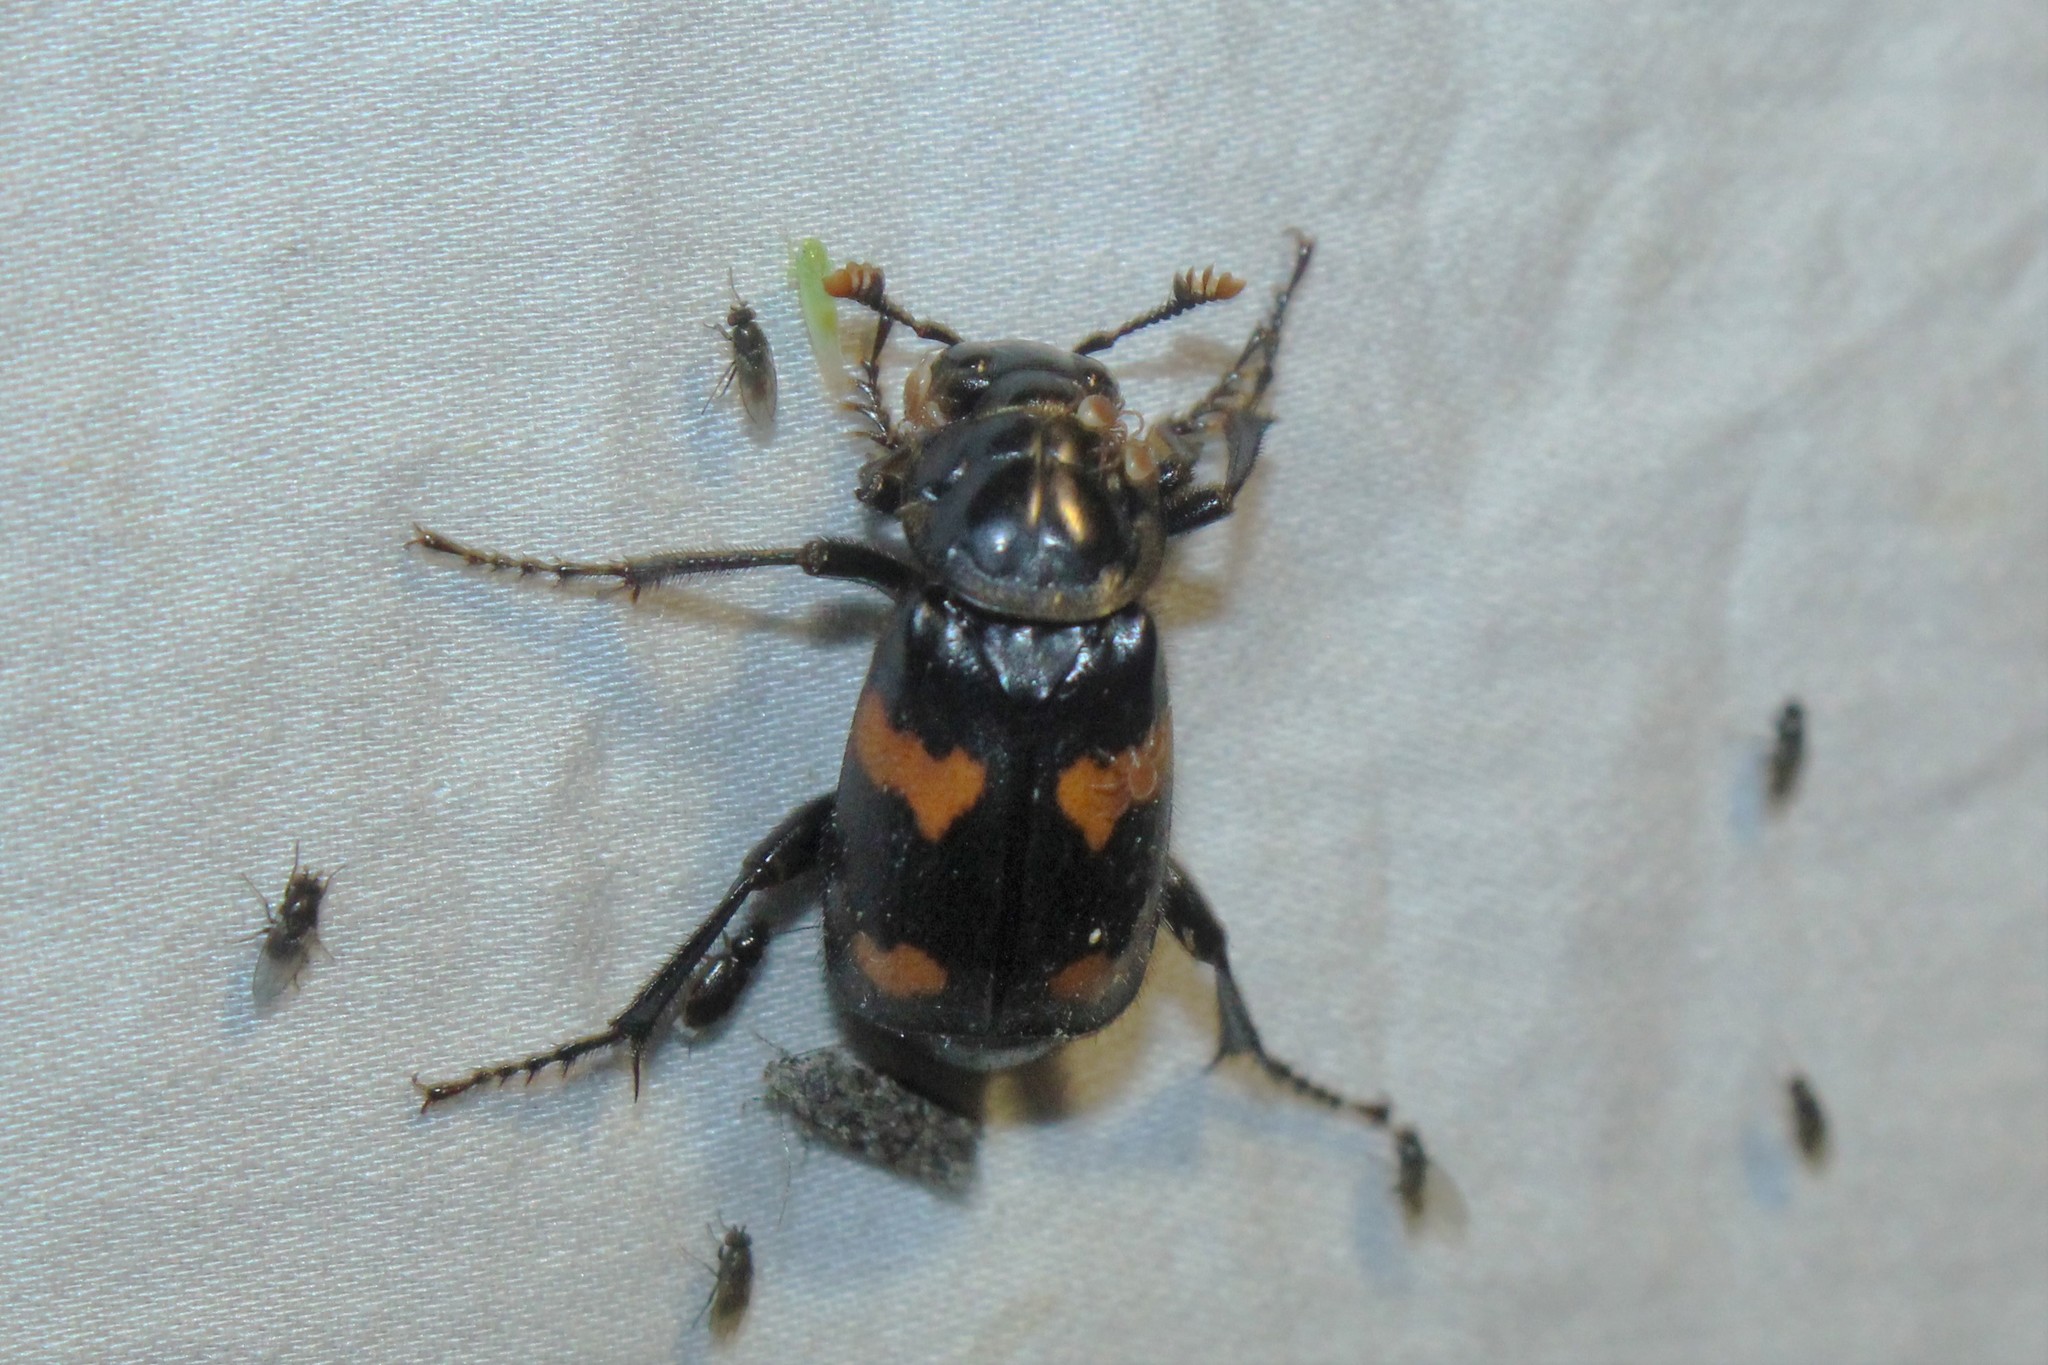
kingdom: Animalia
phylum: Arthropoda
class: Insecta
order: Coleoptera
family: Staphylinidae
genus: Nicrophorus
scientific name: Nicrophorus orbicollis
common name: Roundneck sexton beetle
